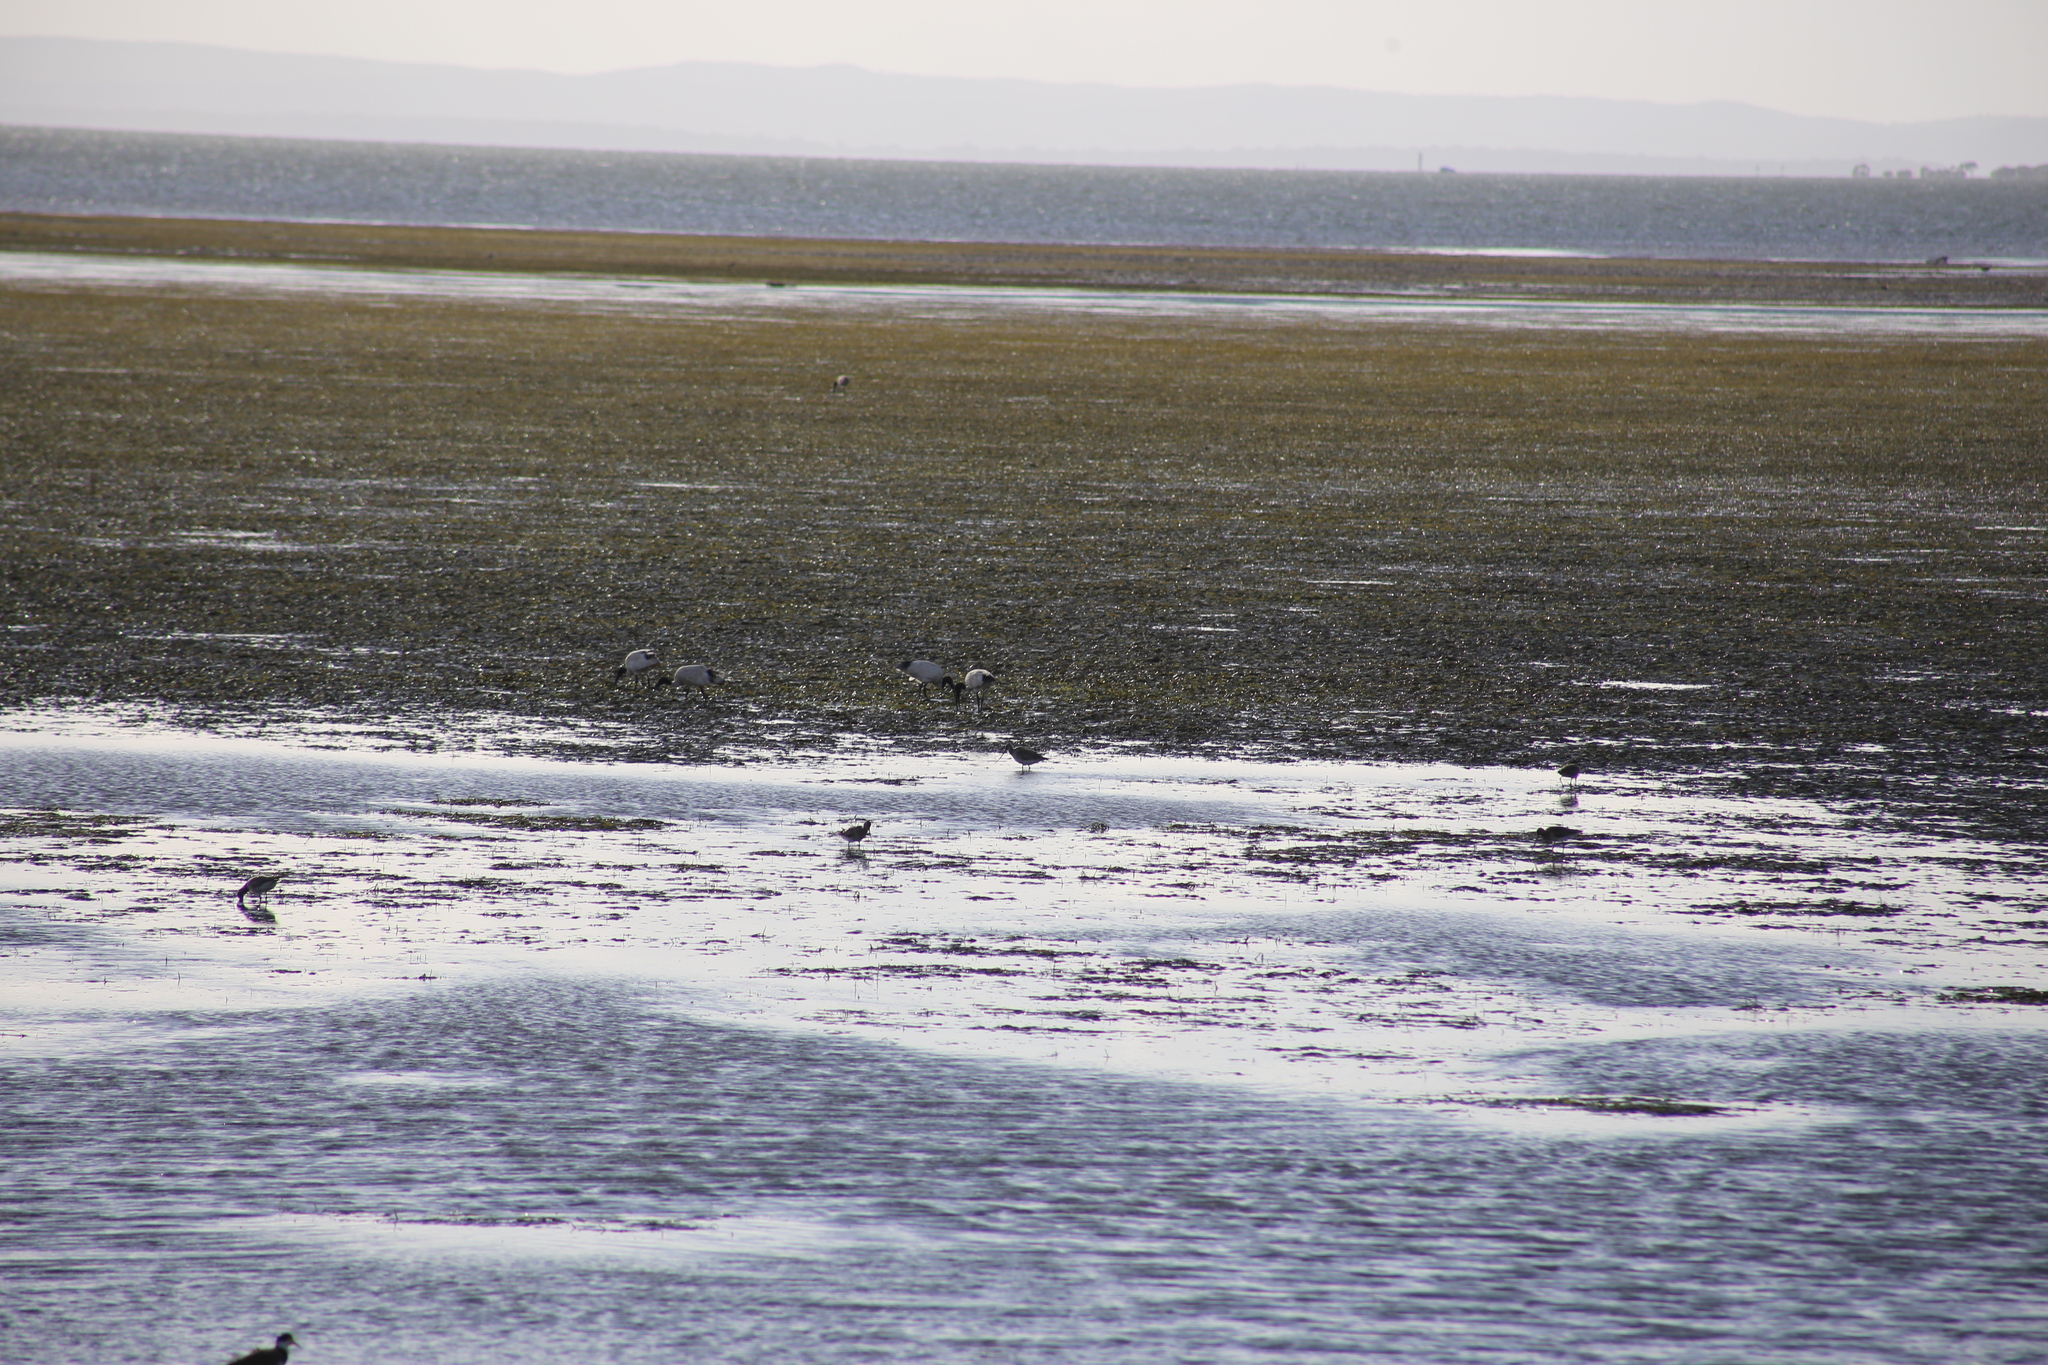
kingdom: Animalia
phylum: Chordata
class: Aves
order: Pelecaniformes
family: Threskiornithidae
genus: Threskiornis
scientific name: Threskiornis molucca
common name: Australian white ibis
